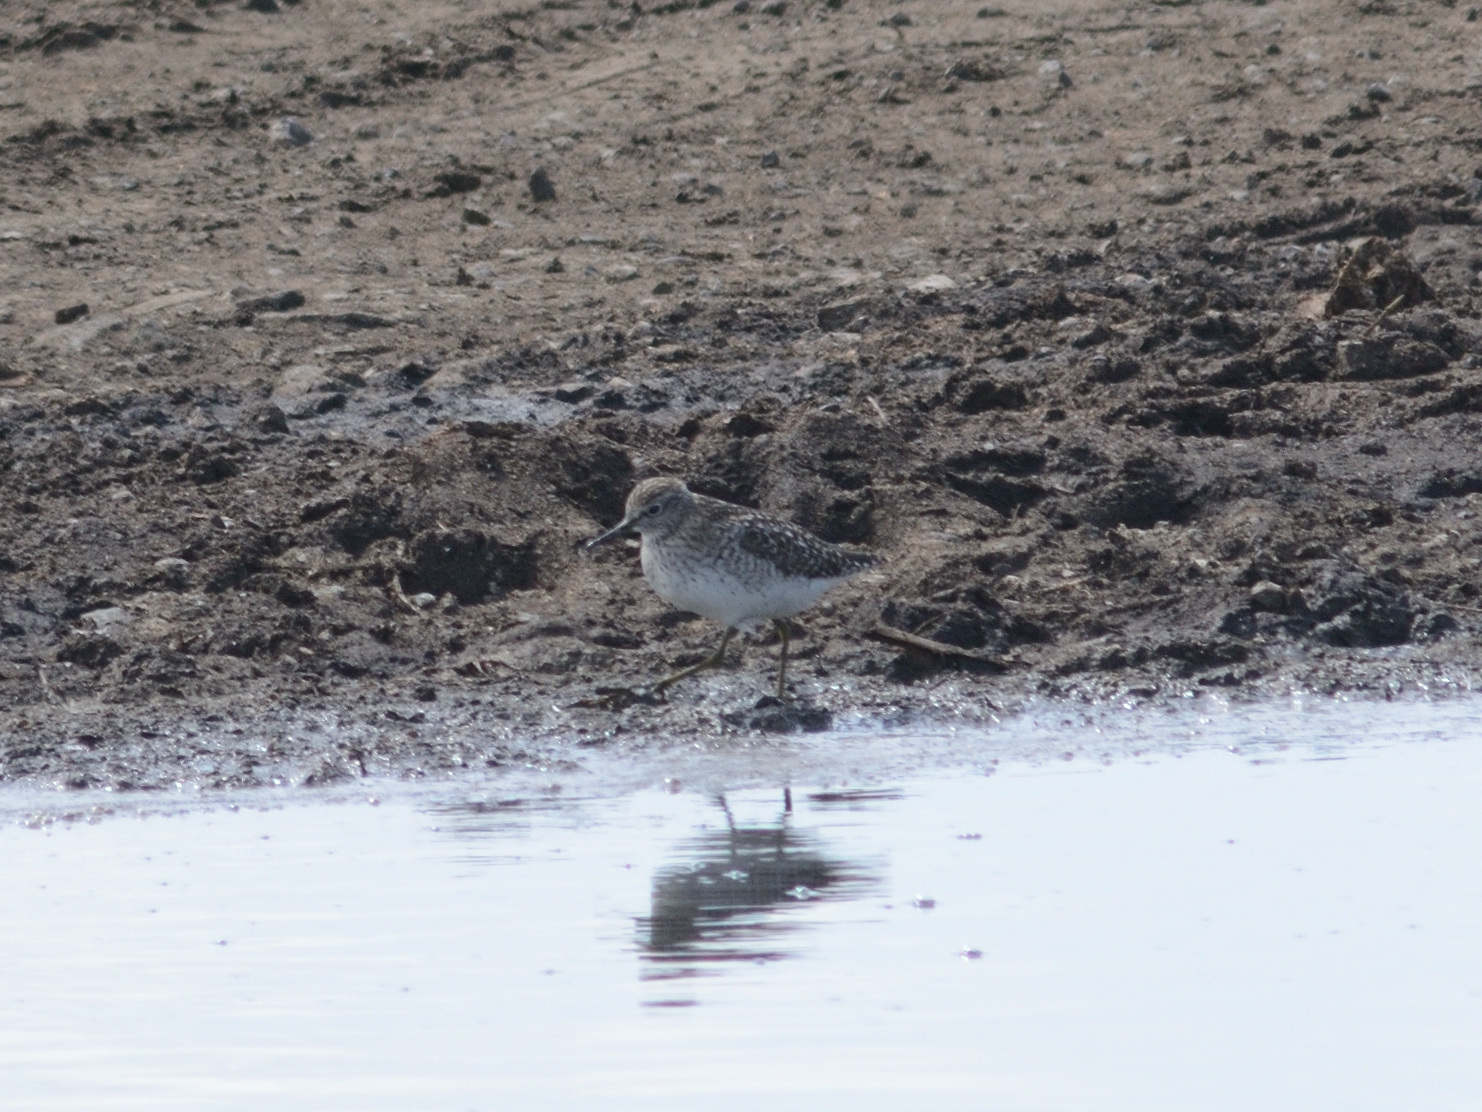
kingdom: Animalia
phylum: Chordata
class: Aves
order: Charadriiformes
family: Scolopacidae
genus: Tringa
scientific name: Tringa glareola
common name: Wood sandpiper
